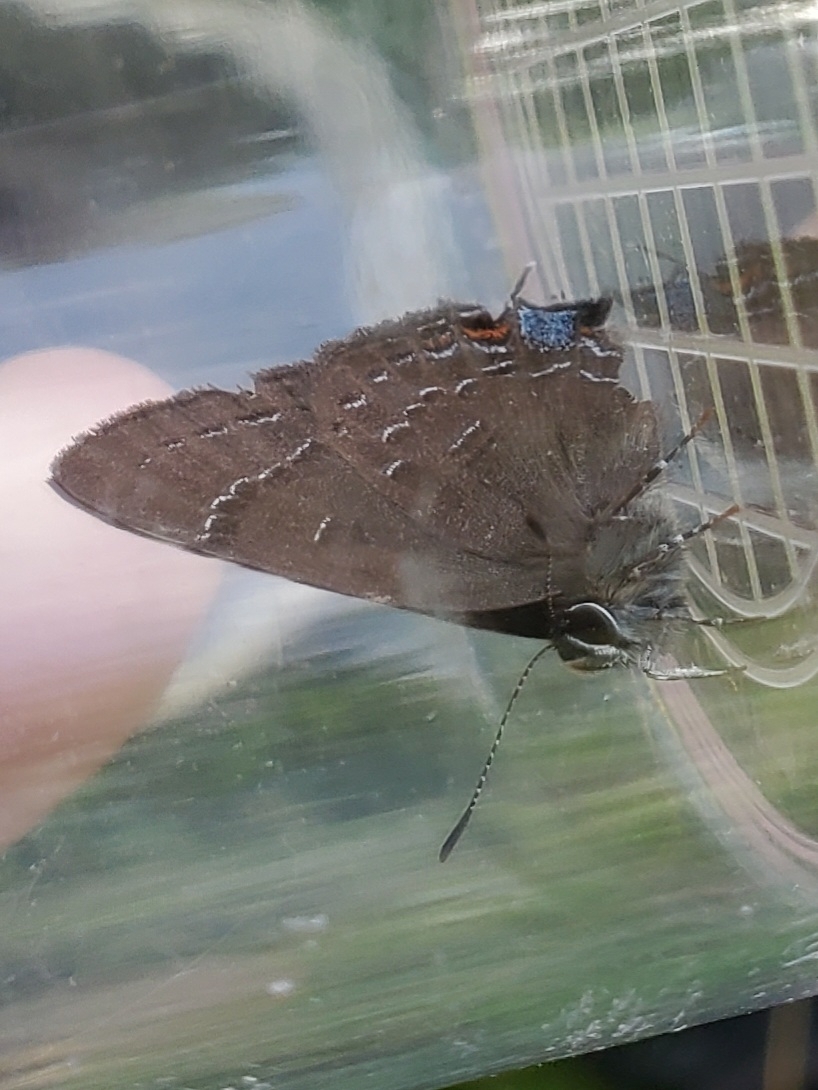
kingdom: Animalia
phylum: Arthropoda
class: Insecta
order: Lepidoptera
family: Lycaenidae
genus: Satyrium
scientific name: Satyrium calanus
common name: Banded hairstreak
